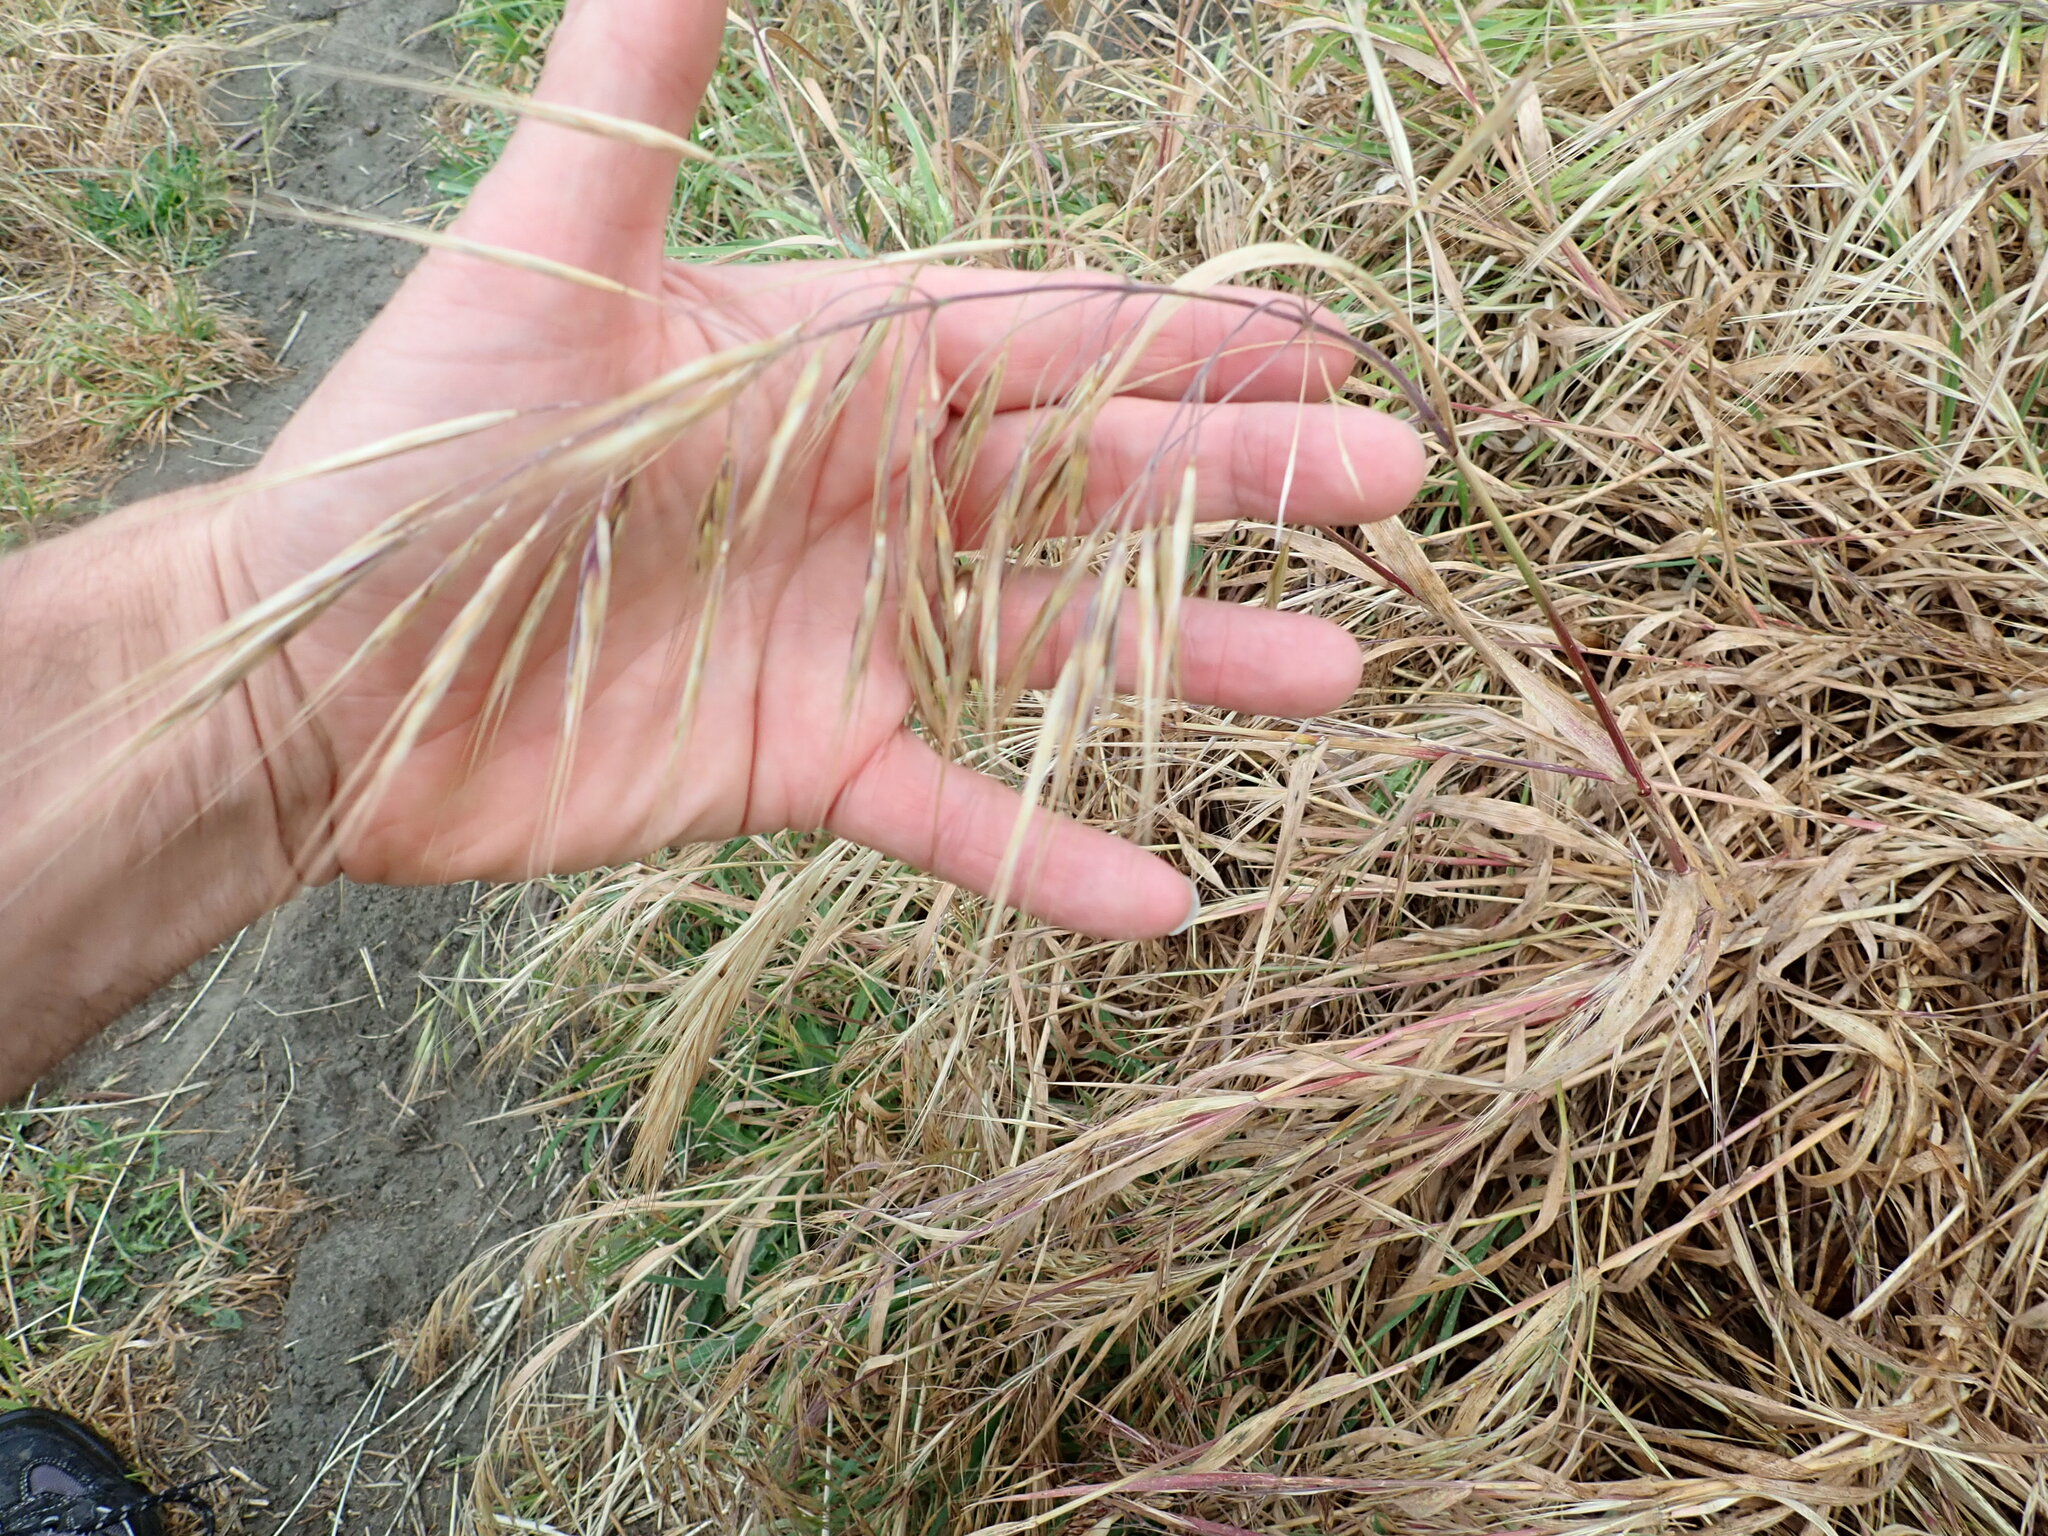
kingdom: Plantae
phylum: Tracheophyta
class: Liliopsida
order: Poales
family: Poaceae
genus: Bromus
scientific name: Bromus diandrus
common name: Ripgut brome
